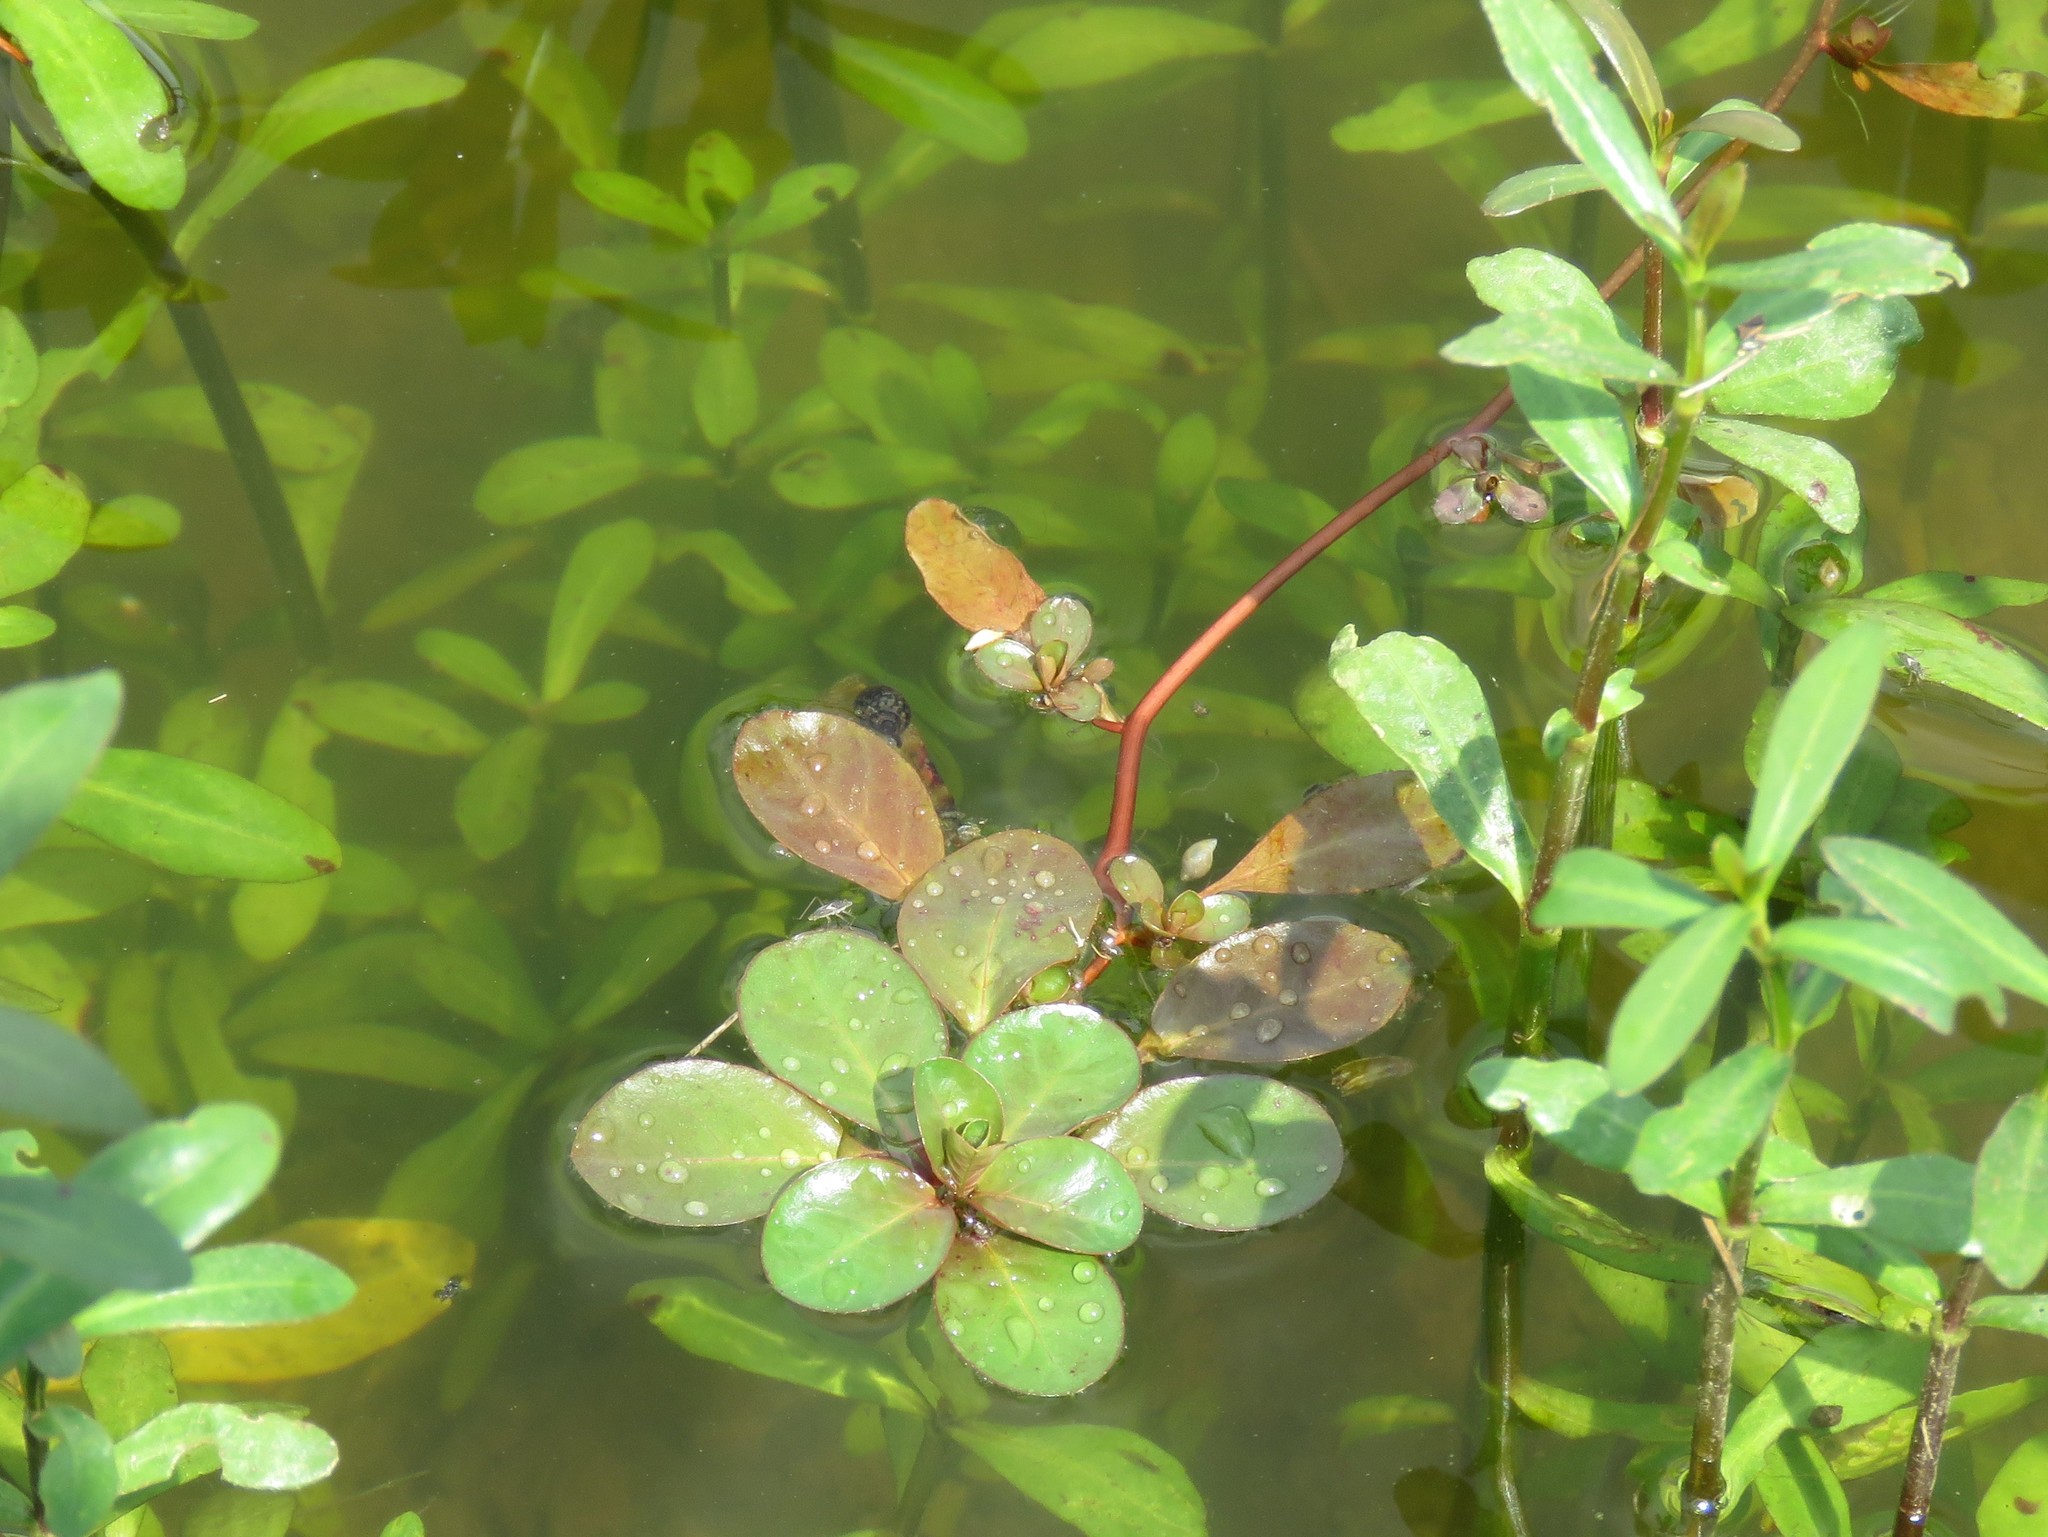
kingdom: Plantae
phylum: Tracheophyta
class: Magnoliopsida
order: Myrtales
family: Onagraceae
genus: Ludwigia
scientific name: Ludwigia peploides
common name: Floating primrose-willow
